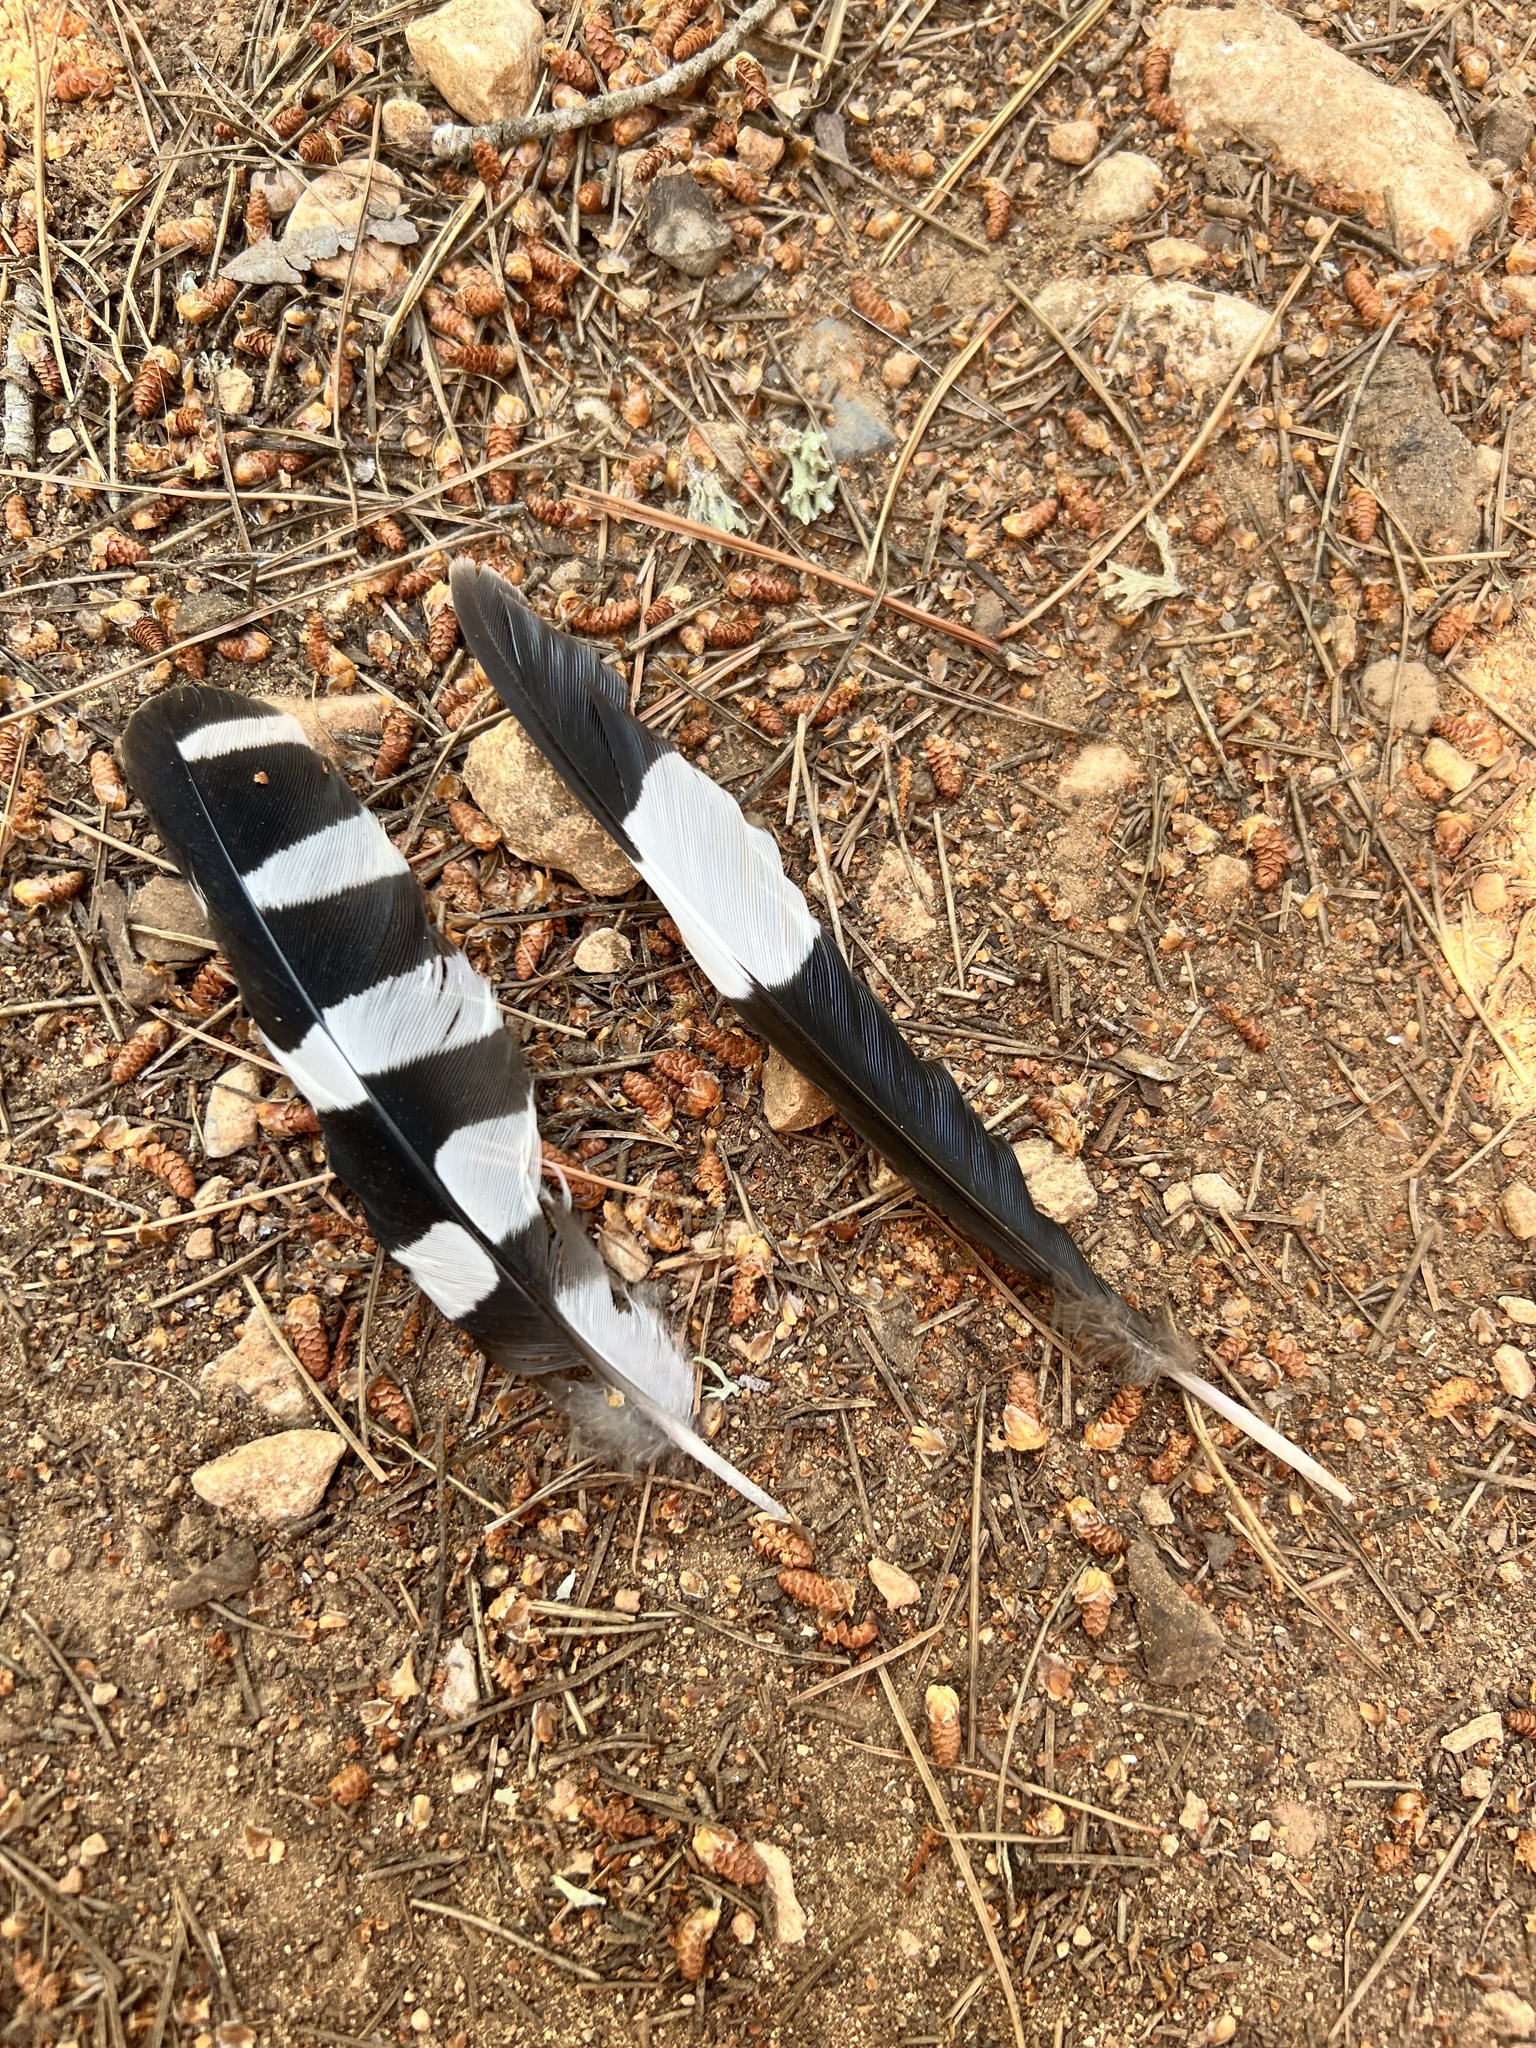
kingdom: Animalia
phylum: Chordata
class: Aves
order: Bucerotiformes
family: Upupidae
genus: Upupa
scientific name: Upupa epops
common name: Eurasian hoopoe
